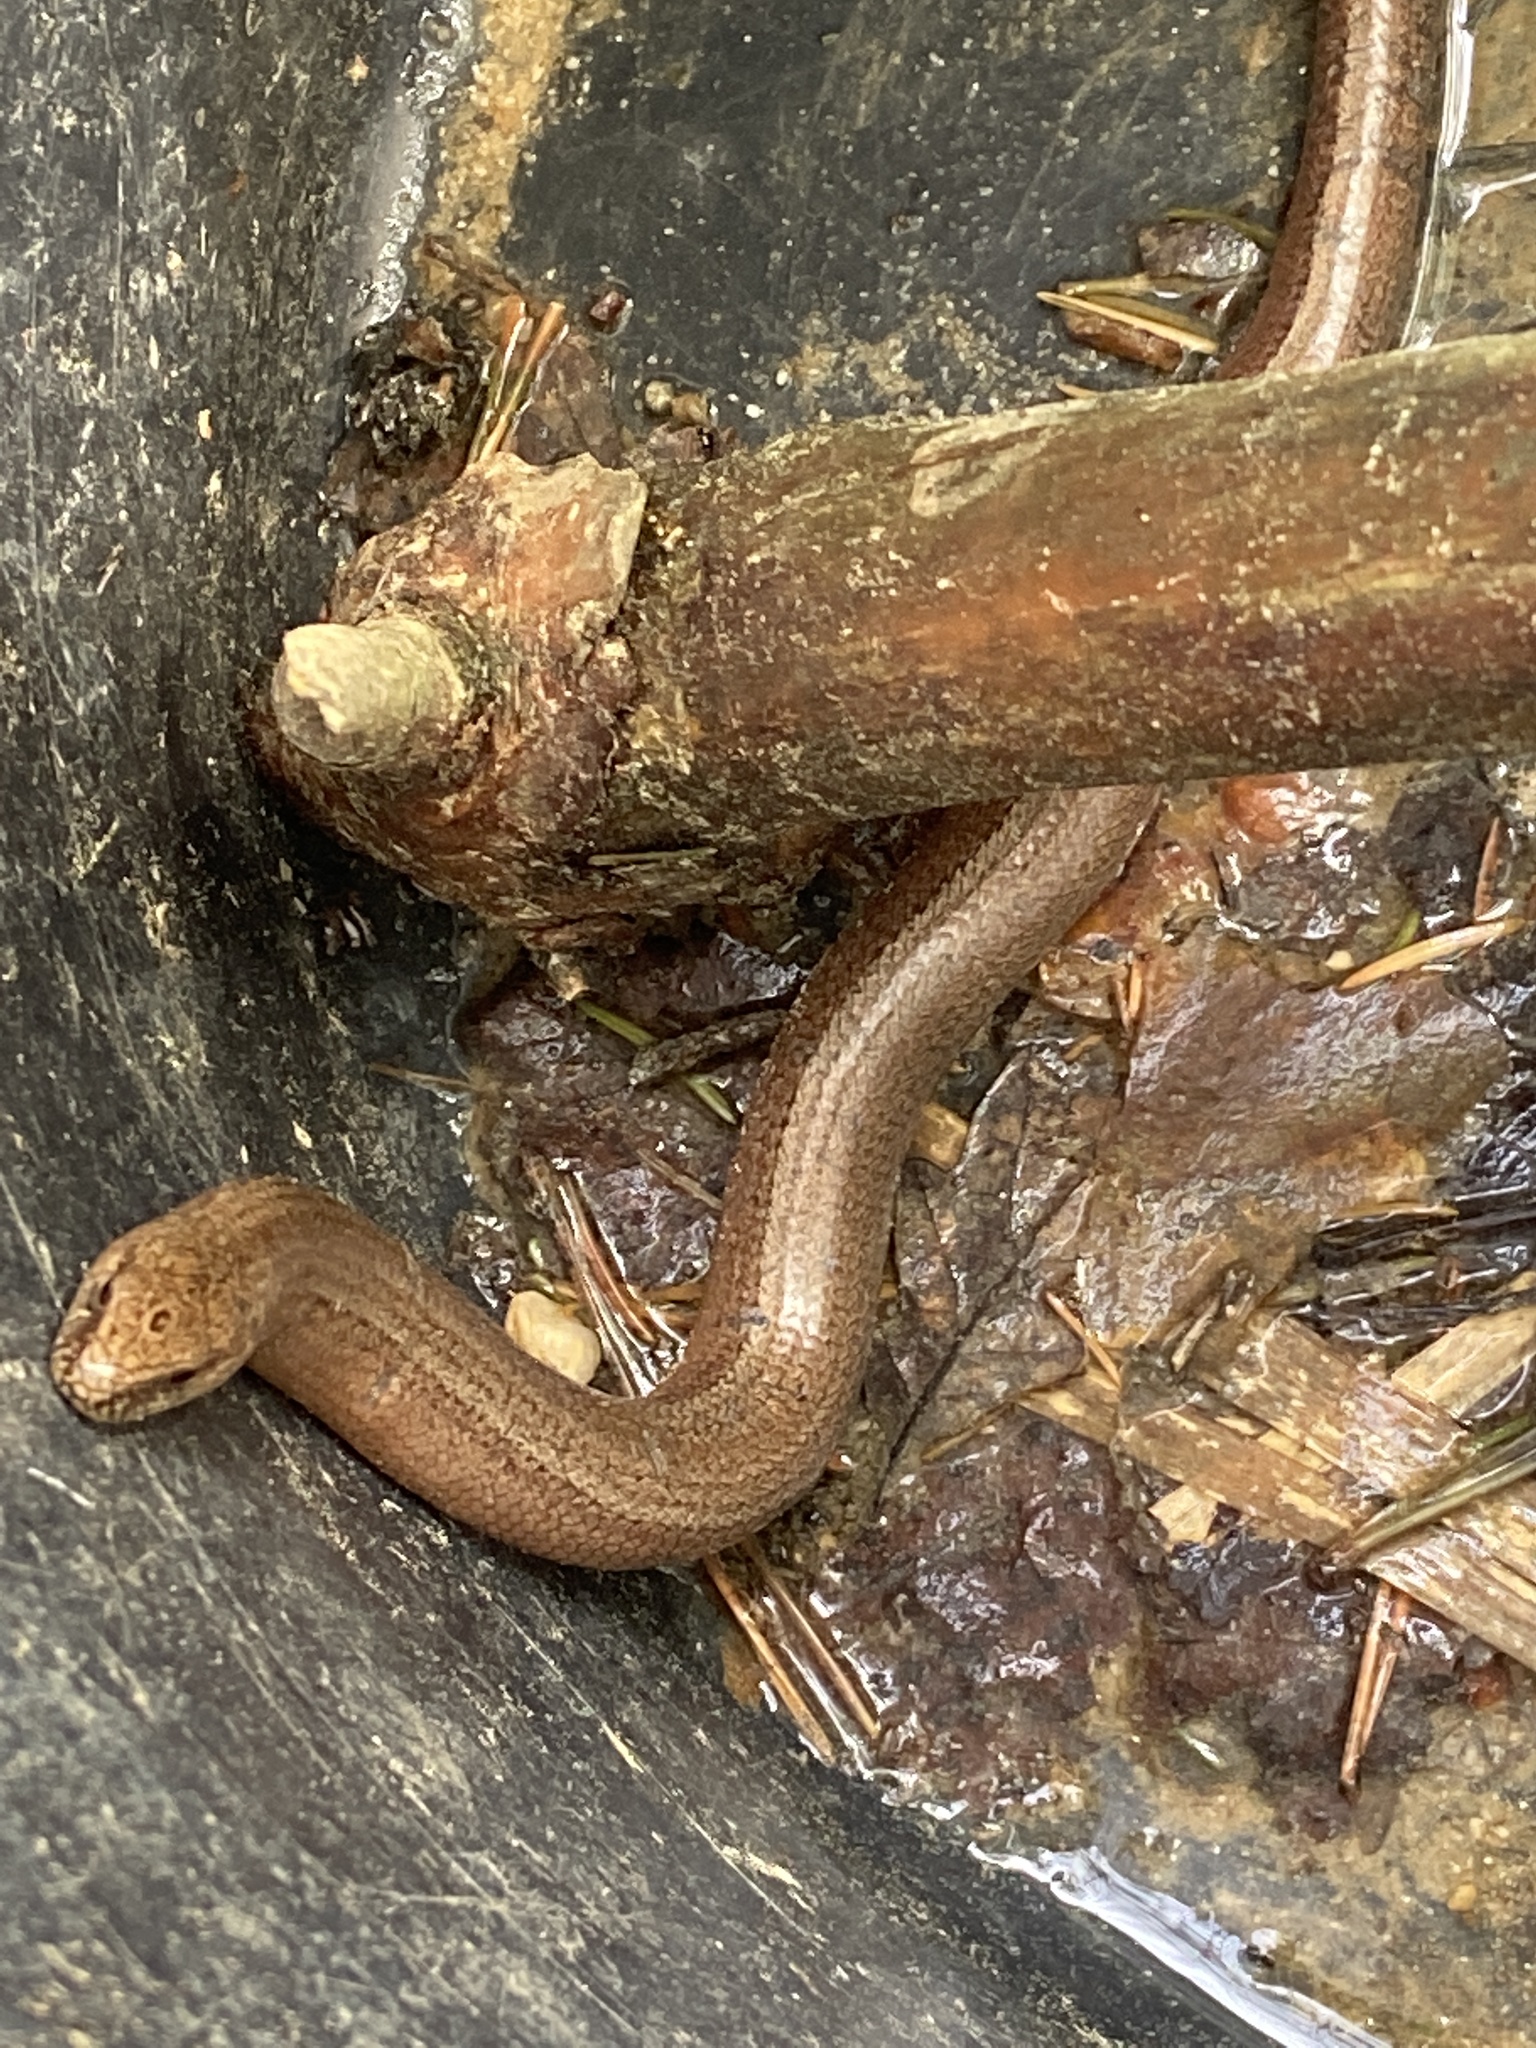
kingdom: Animalia
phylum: Chordata
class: Squamata
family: Anguidae
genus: Anguis
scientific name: Anguis fragilis
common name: Slow worm
